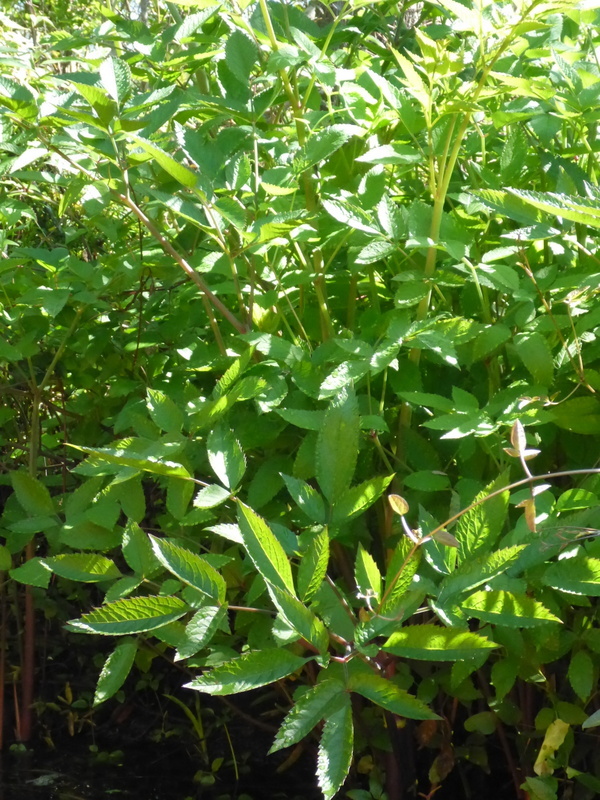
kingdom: Plantae
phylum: Tracheophyta
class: Magnoliopsida
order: Apiales
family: Apiaceae
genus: Cicuta
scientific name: Cicuta maculata
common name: Spotted cowbane
